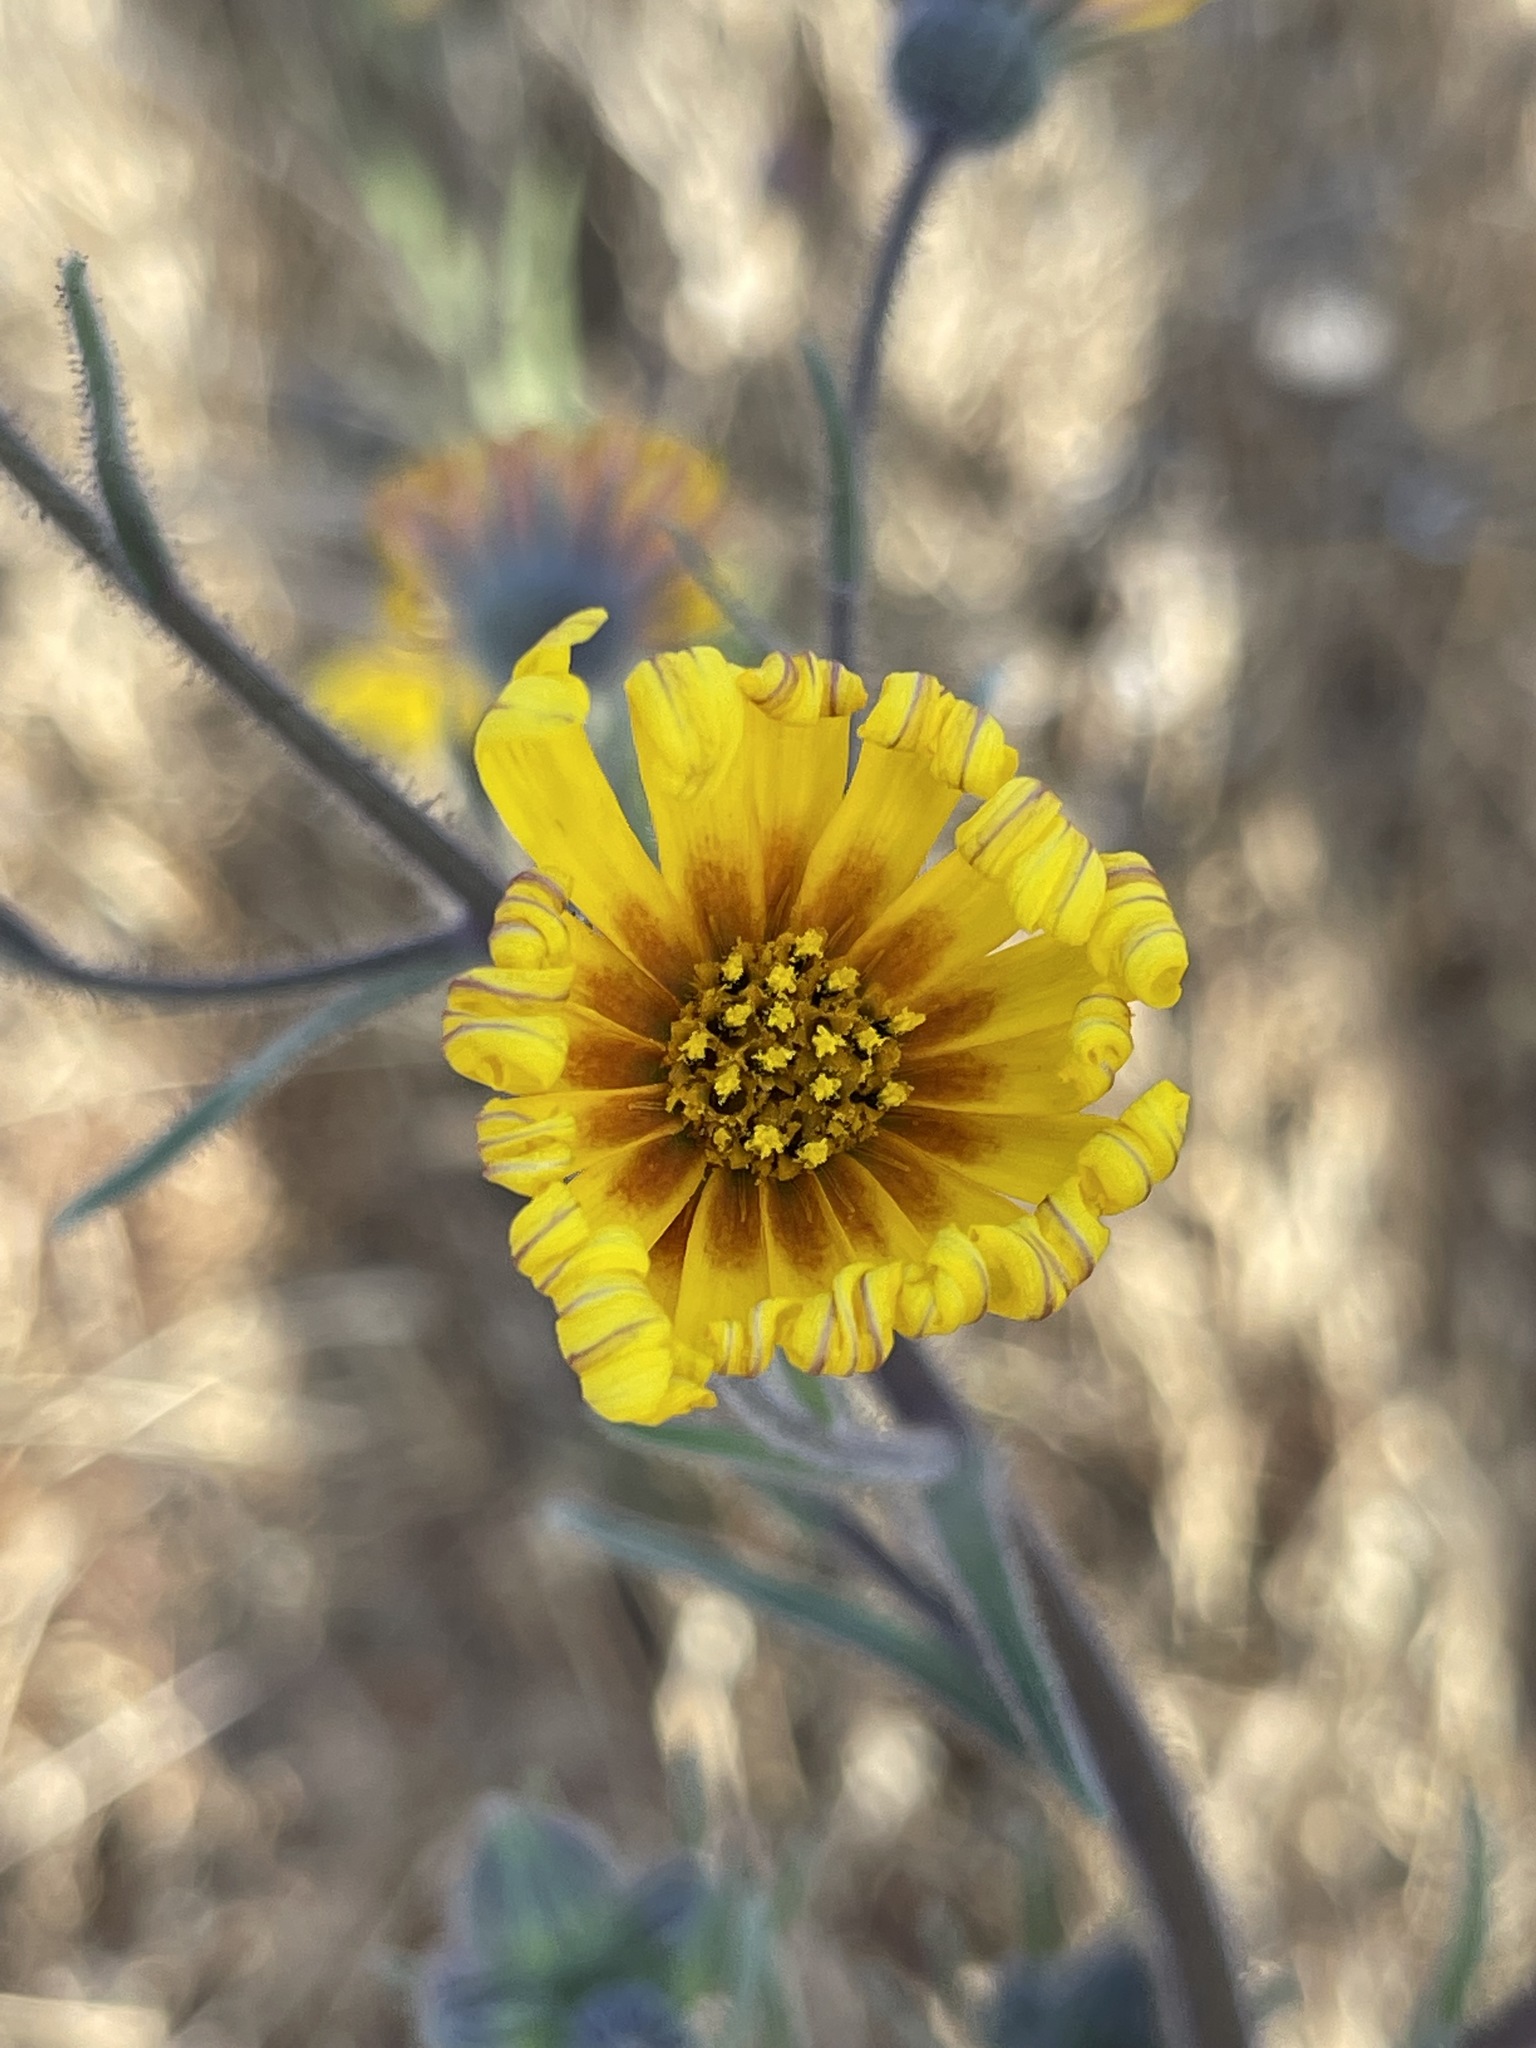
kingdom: Plantae
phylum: Tracheophyta
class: Magnoliopsida
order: Asterales
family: Asteraceae
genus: Madia
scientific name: Madia elegans
